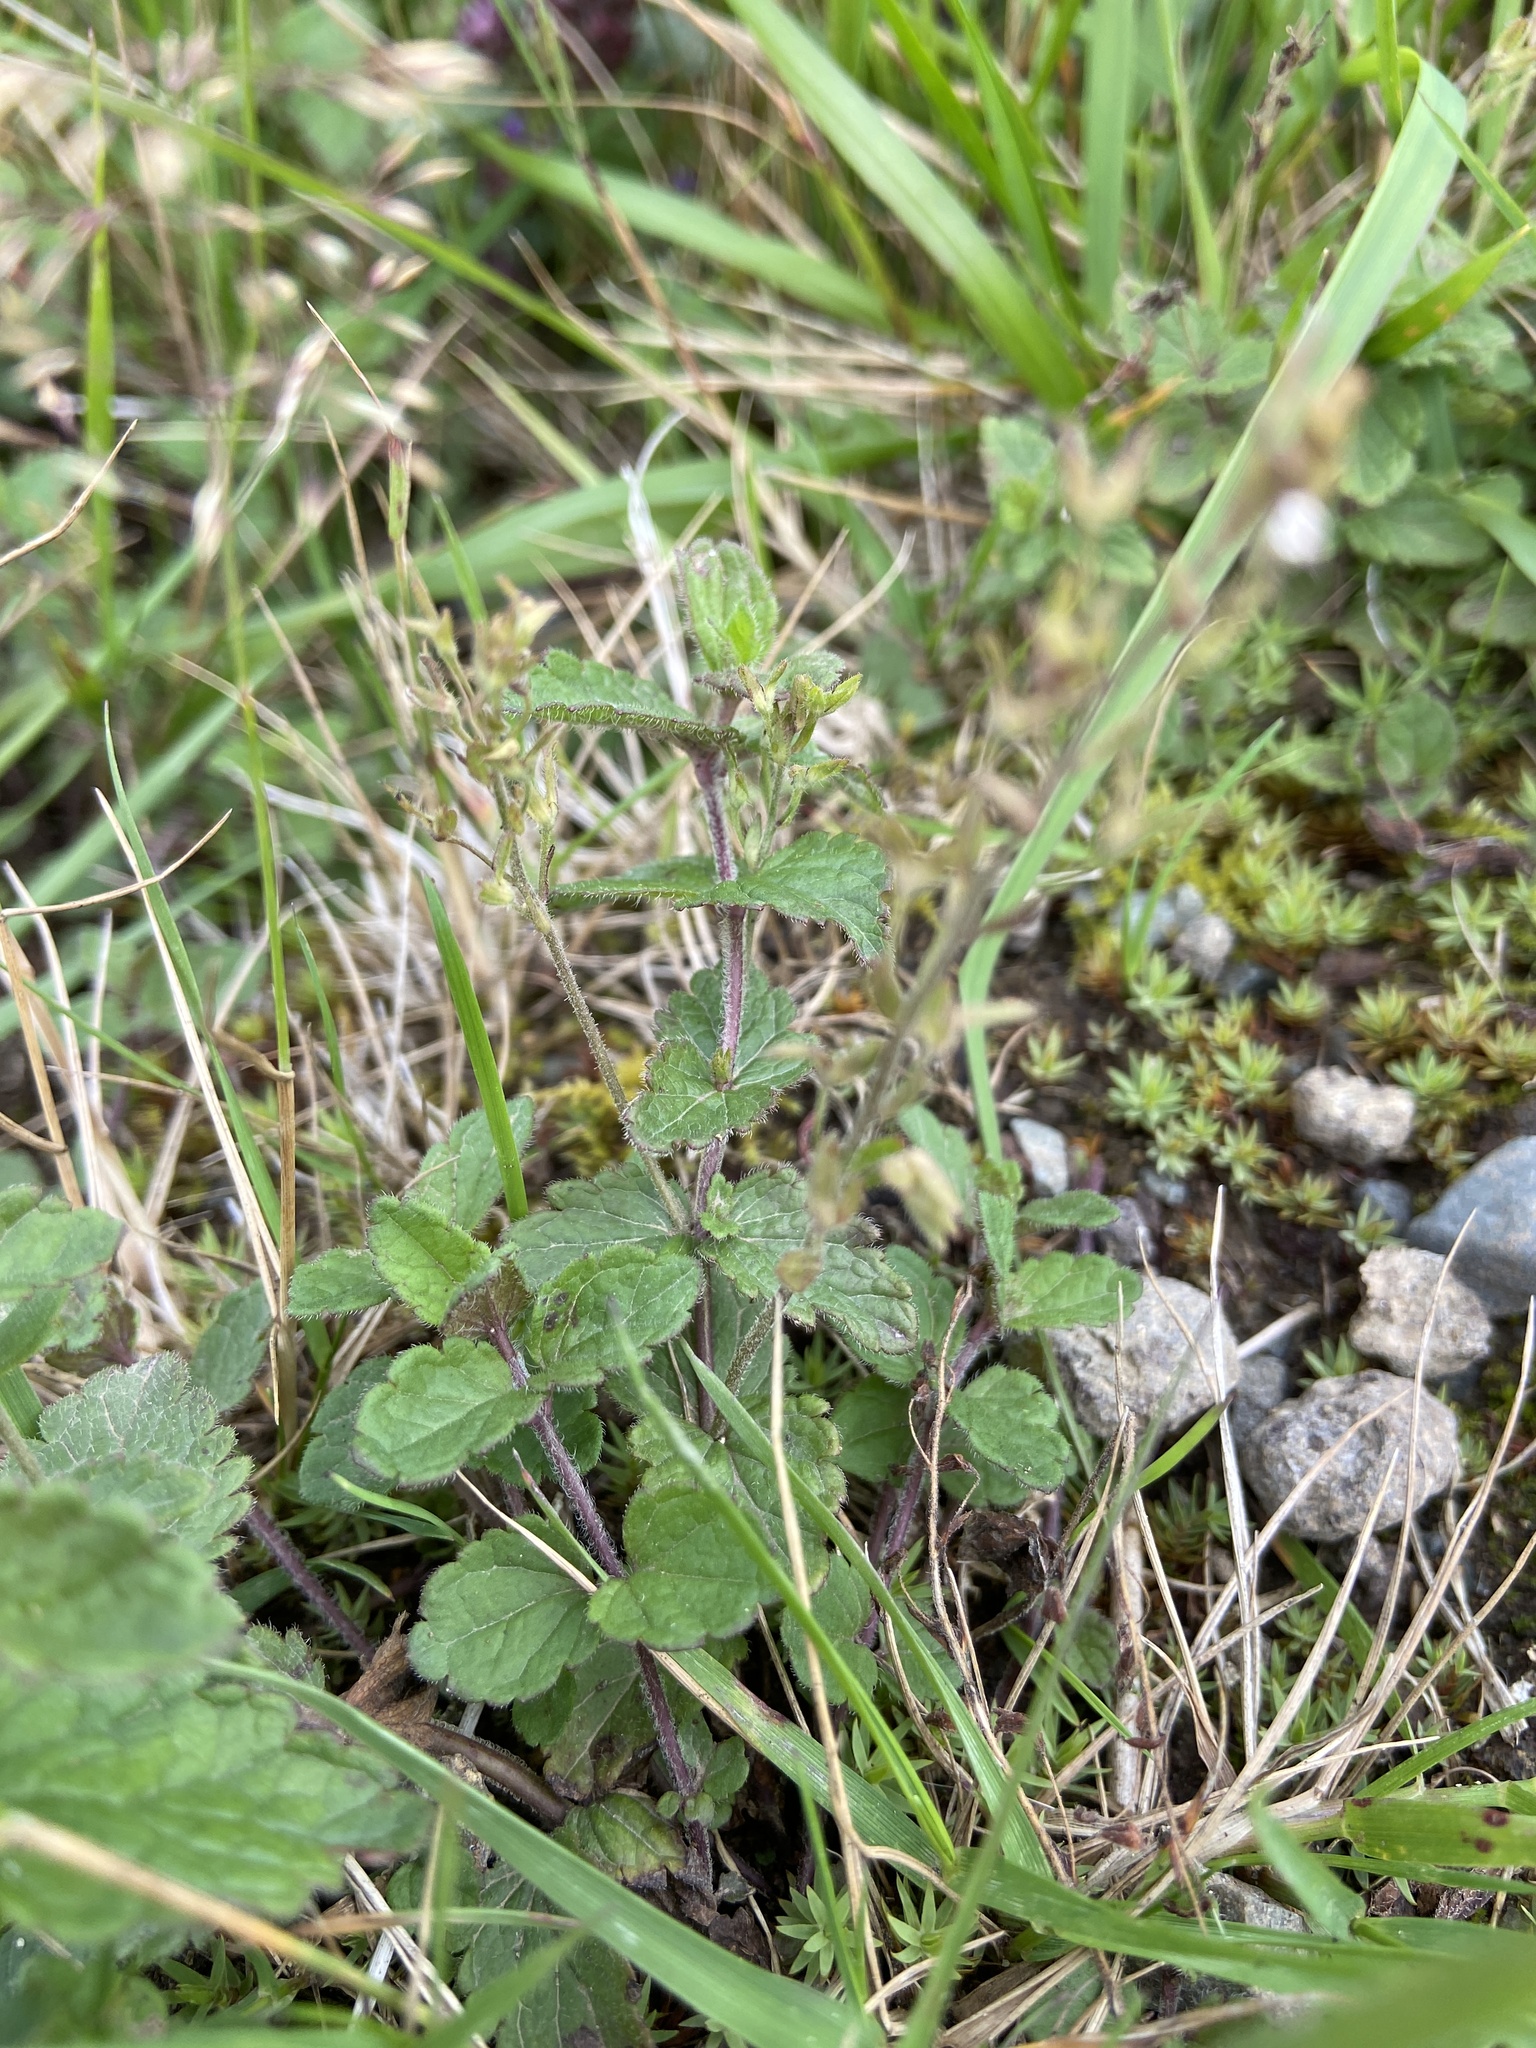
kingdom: Plantae
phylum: Tracheophyta
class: Magnoliopsida
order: Lamiales
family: Plantaginaceae
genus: Veronica
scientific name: Veronica chamaedrys
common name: Germander speedwell
